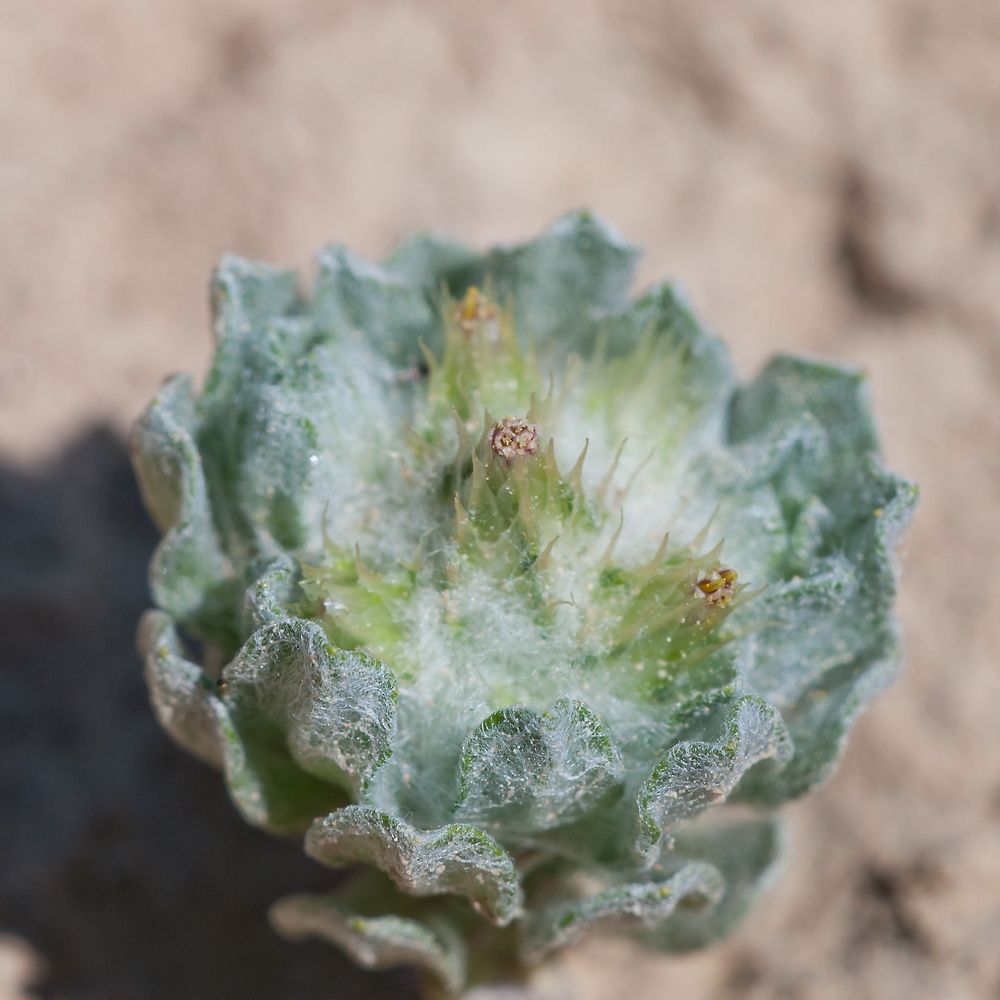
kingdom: Plantae
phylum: Tracheophyta
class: Magnoliopsida
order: Asterales
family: Asteraceae
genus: Filago
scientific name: Filago congesta
